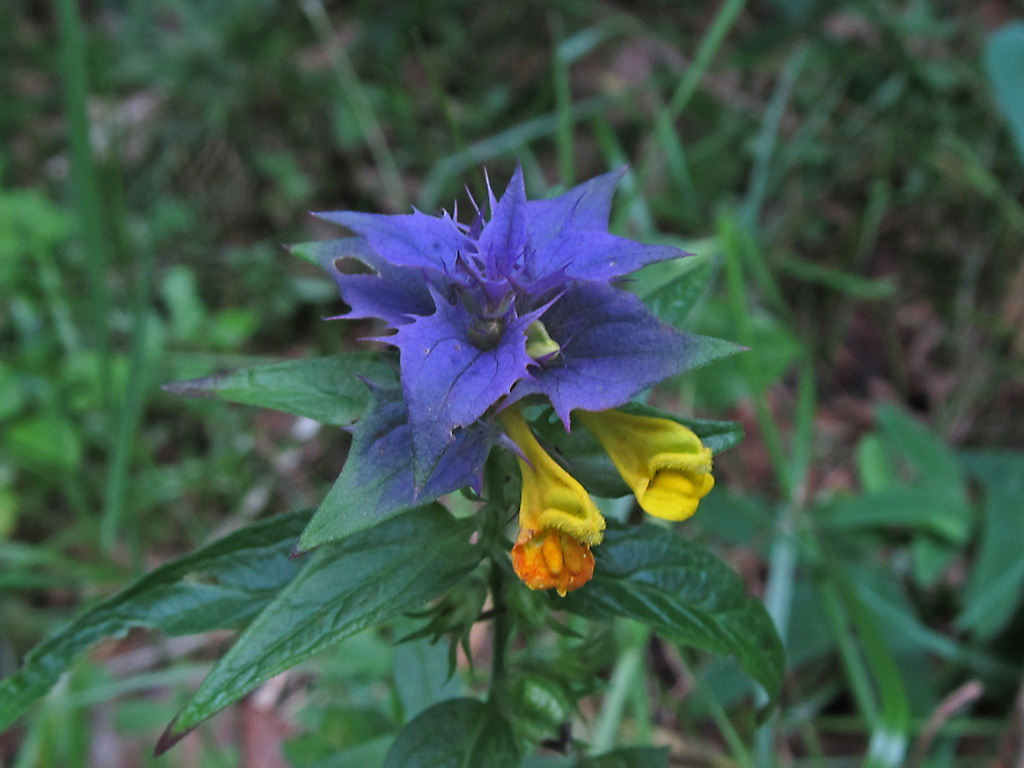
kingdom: Plantae
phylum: Tracheophyta
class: Magnoliopsida
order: Lamiales
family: Orobanchaceae
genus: Melampyrum
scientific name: Melampyrum nemorosum
